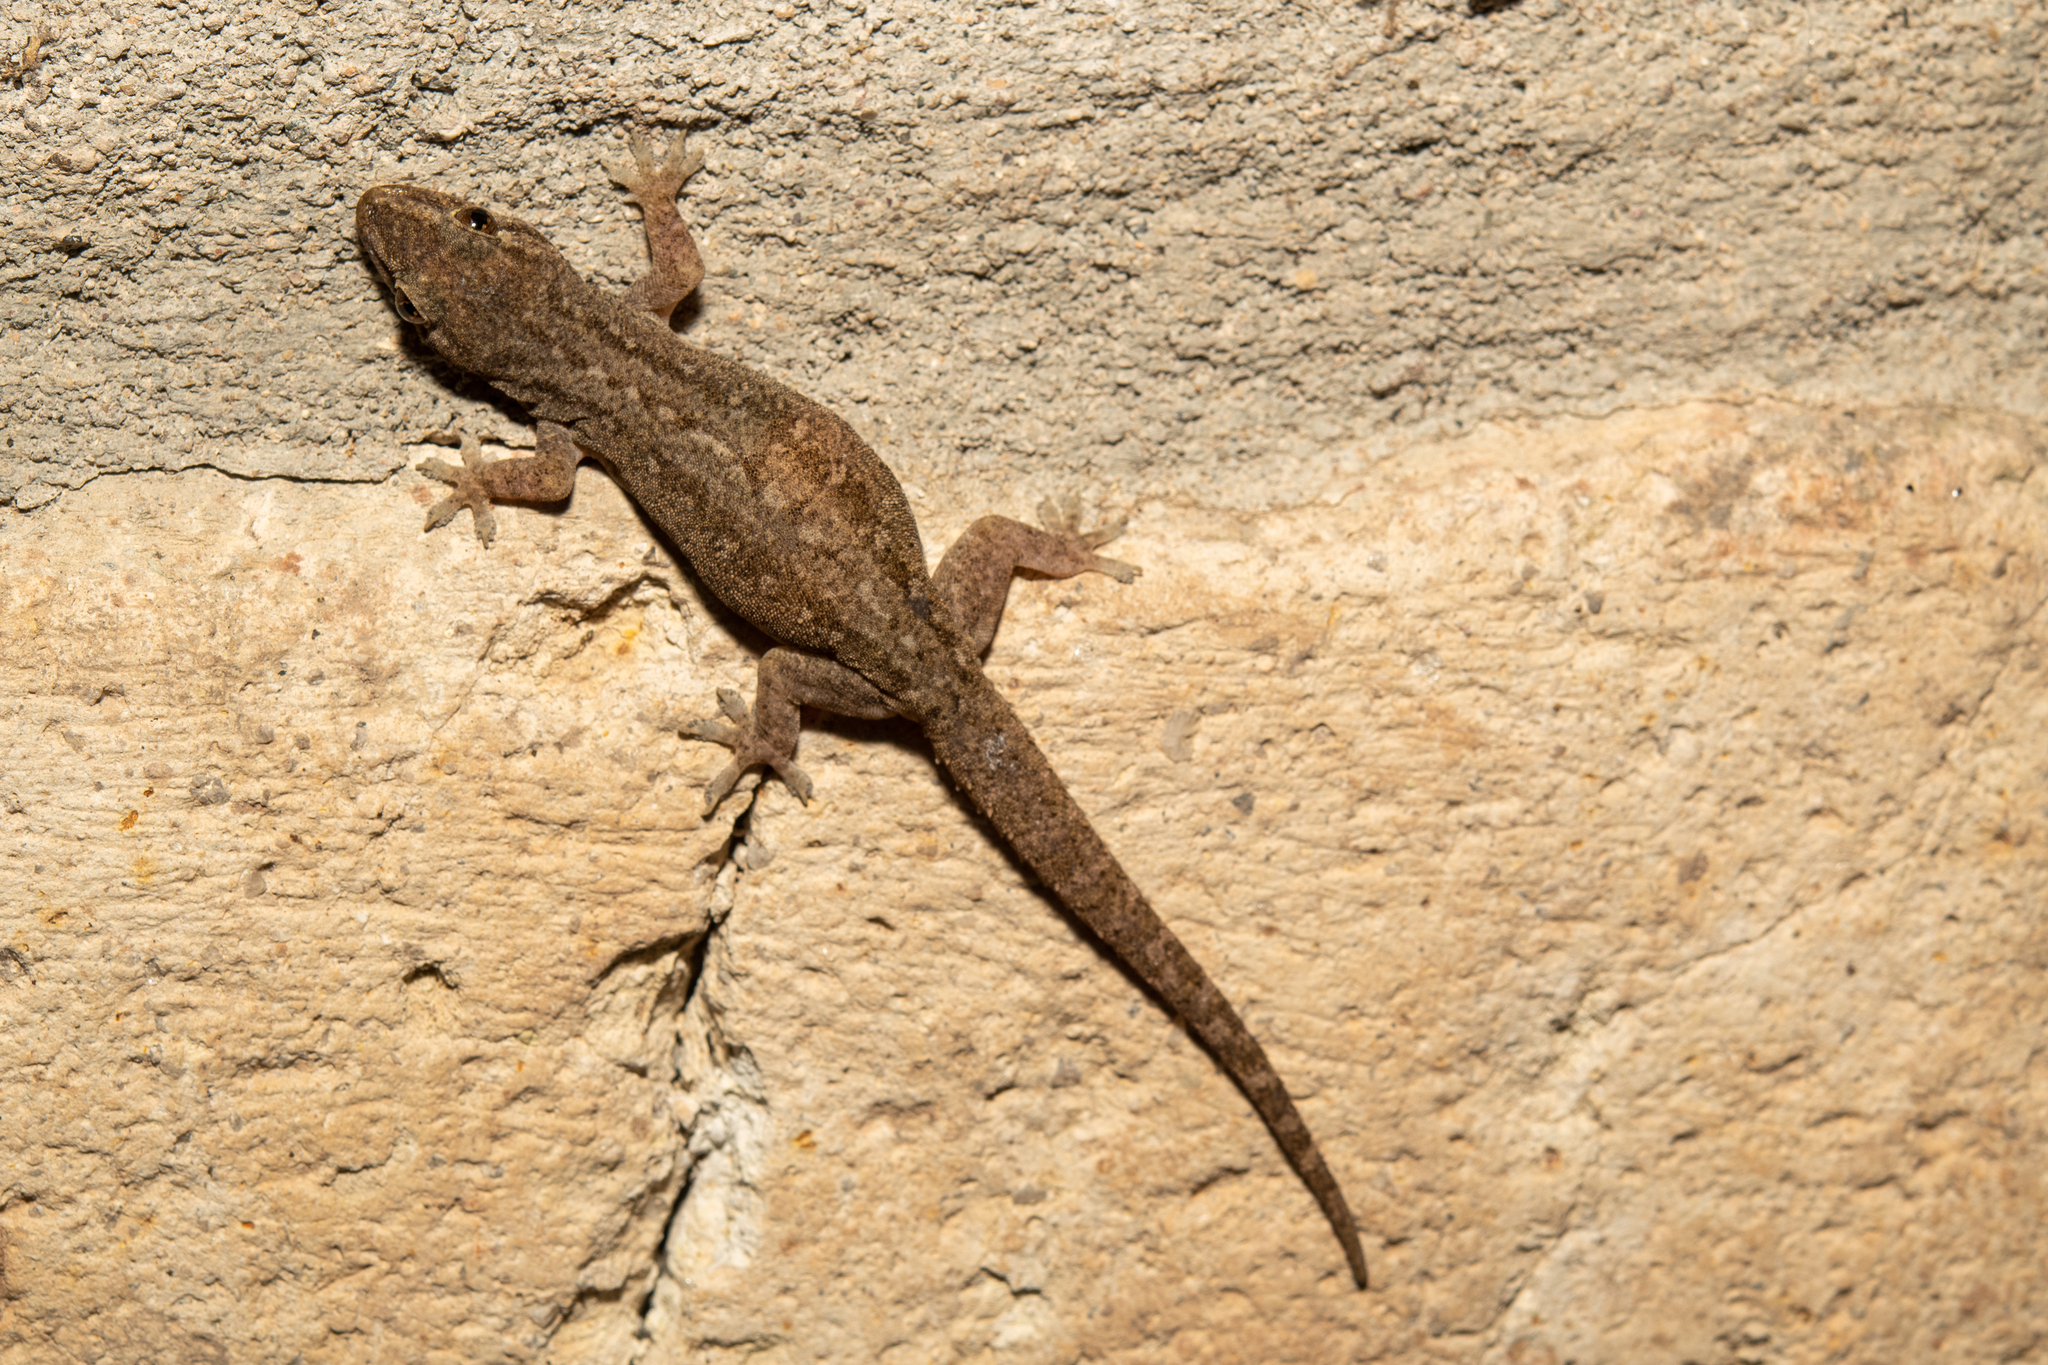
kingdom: Animalia
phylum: Chordata
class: Squamata
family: Gekkonidae
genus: Hemidactylus
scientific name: Hemidactylus frenatus
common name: Common house gecko
